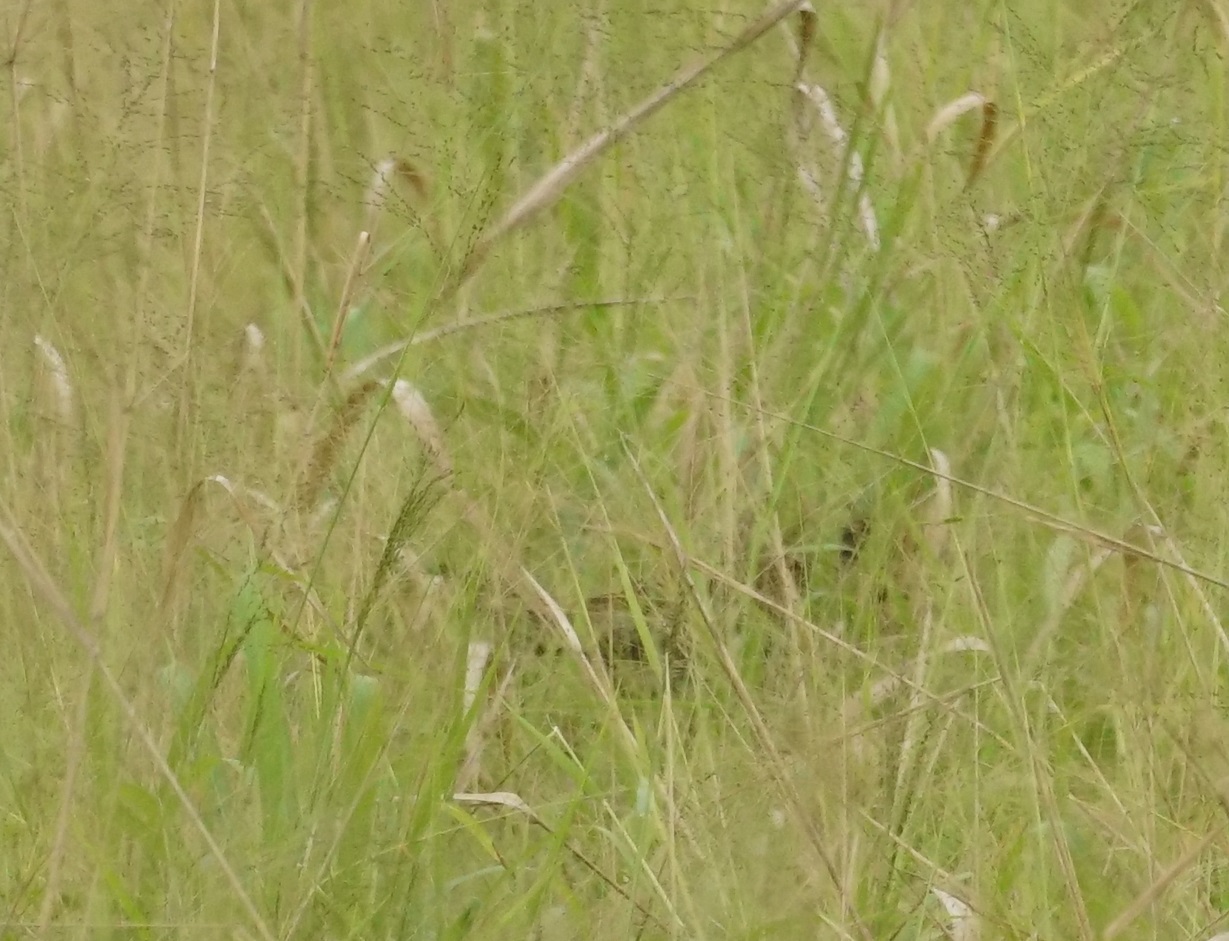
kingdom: Animalia
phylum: Chordata
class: Aves
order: Cuculiformes
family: Cuculidae
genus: Centropus
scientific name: Centropus phasianinus
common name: Pheasant coucal
